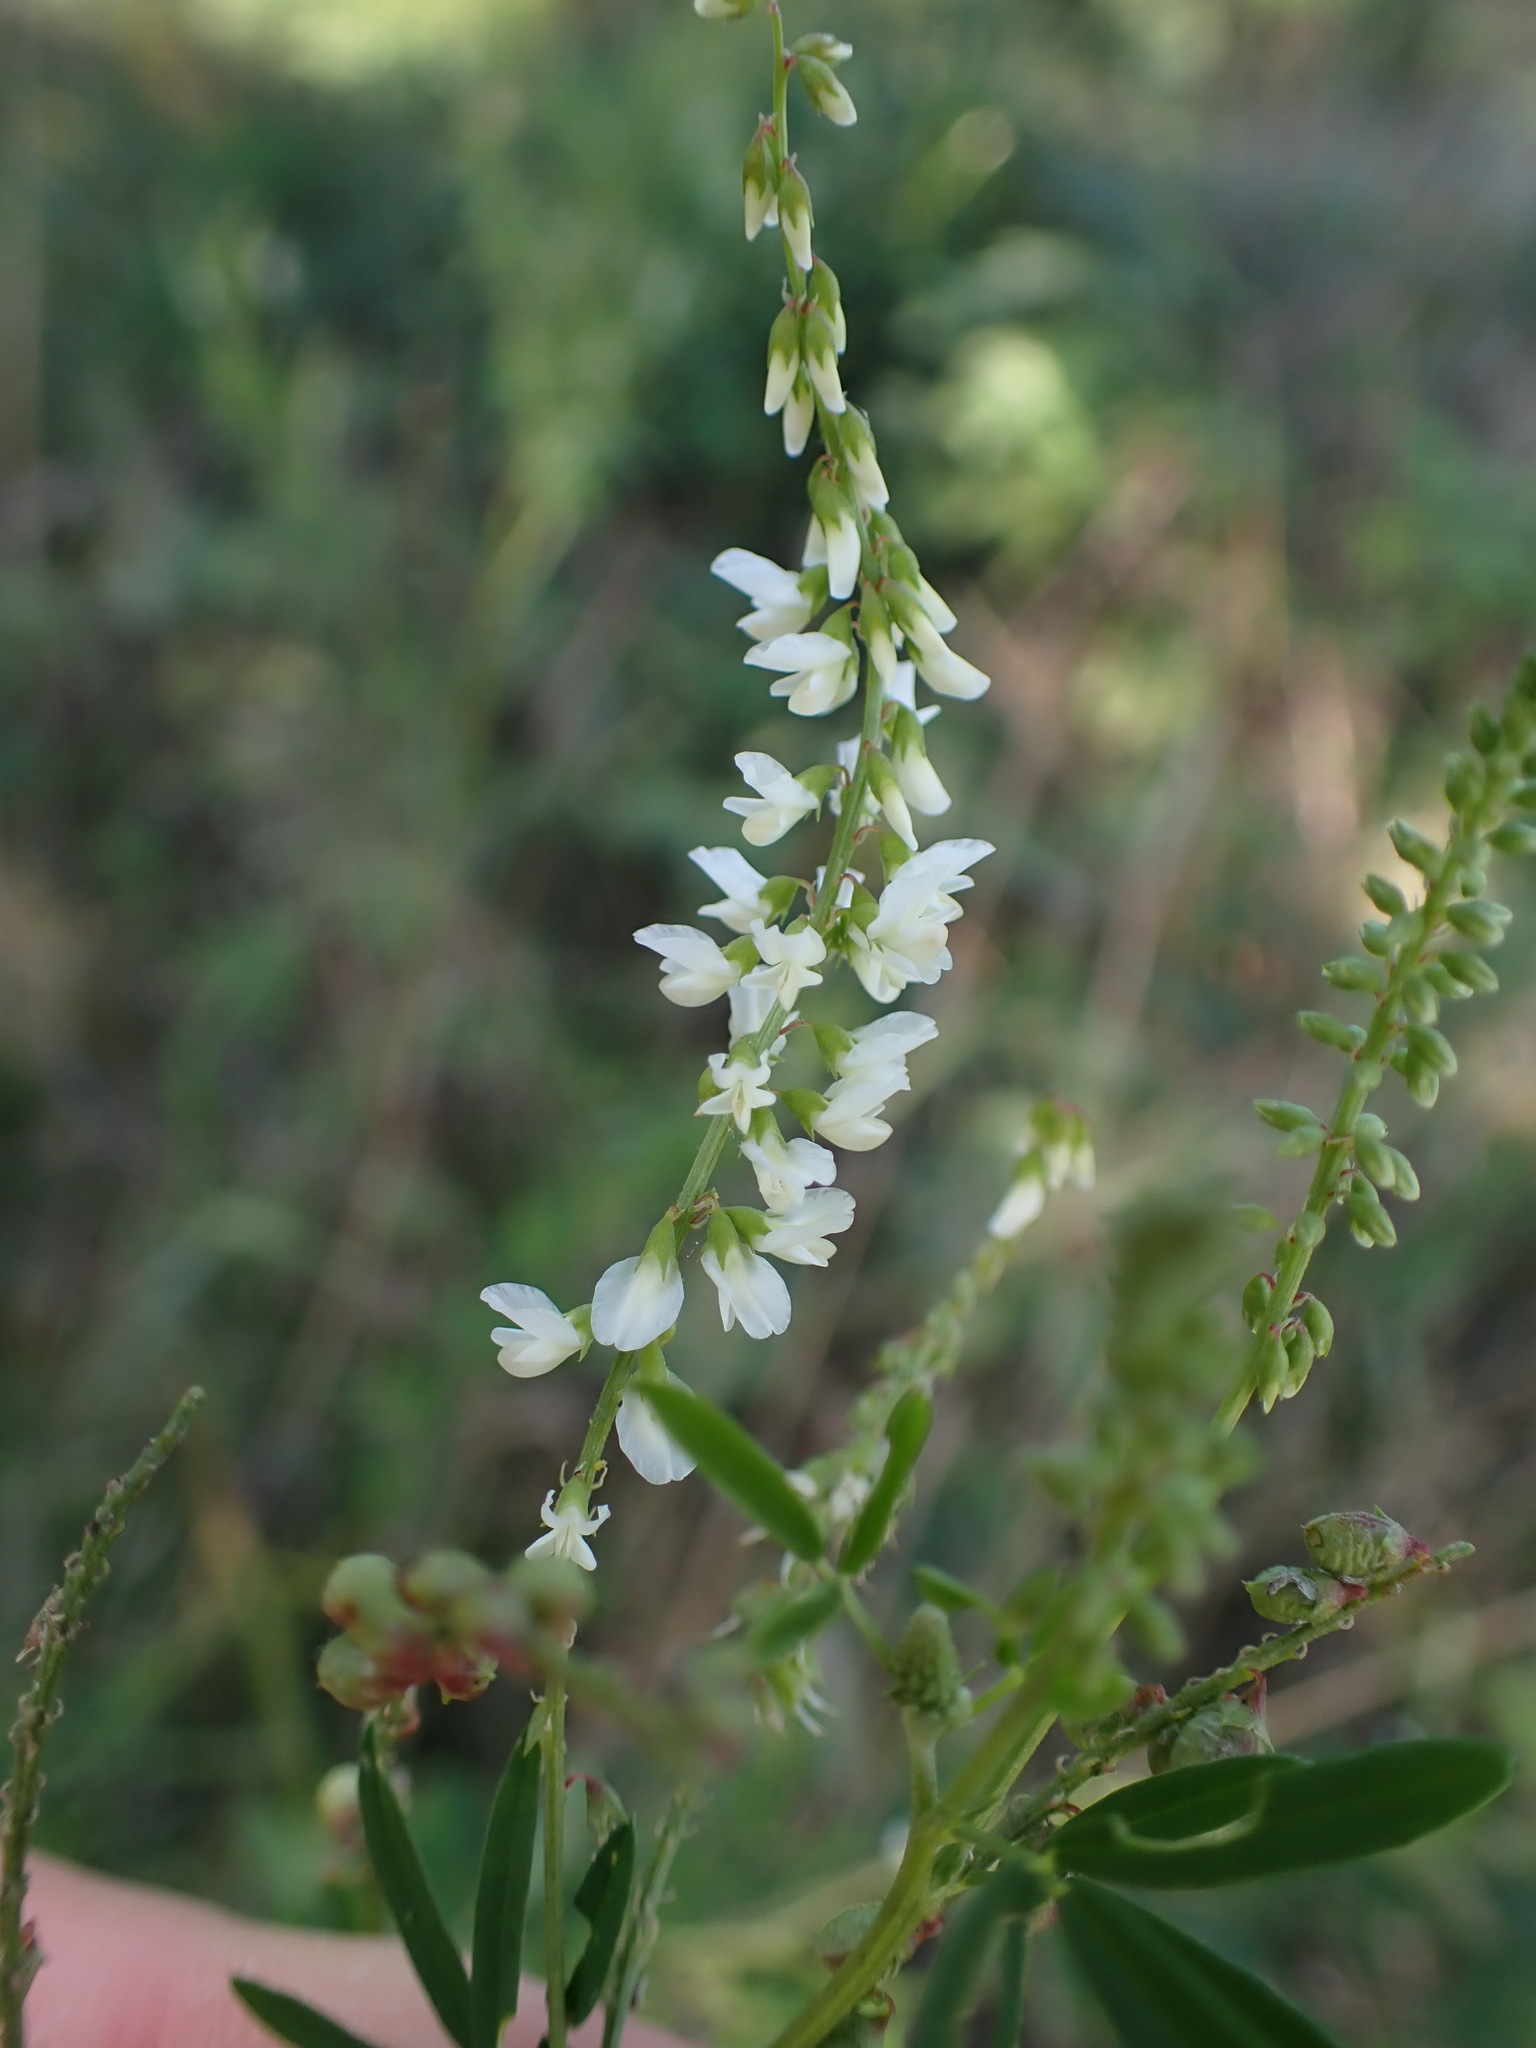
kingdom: Plantae
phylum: Tracheophyta
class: Magnoliopsida
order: Fabales
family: Fabaceae
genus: Melilotus
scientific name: Melilotus albus
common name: White melilot
